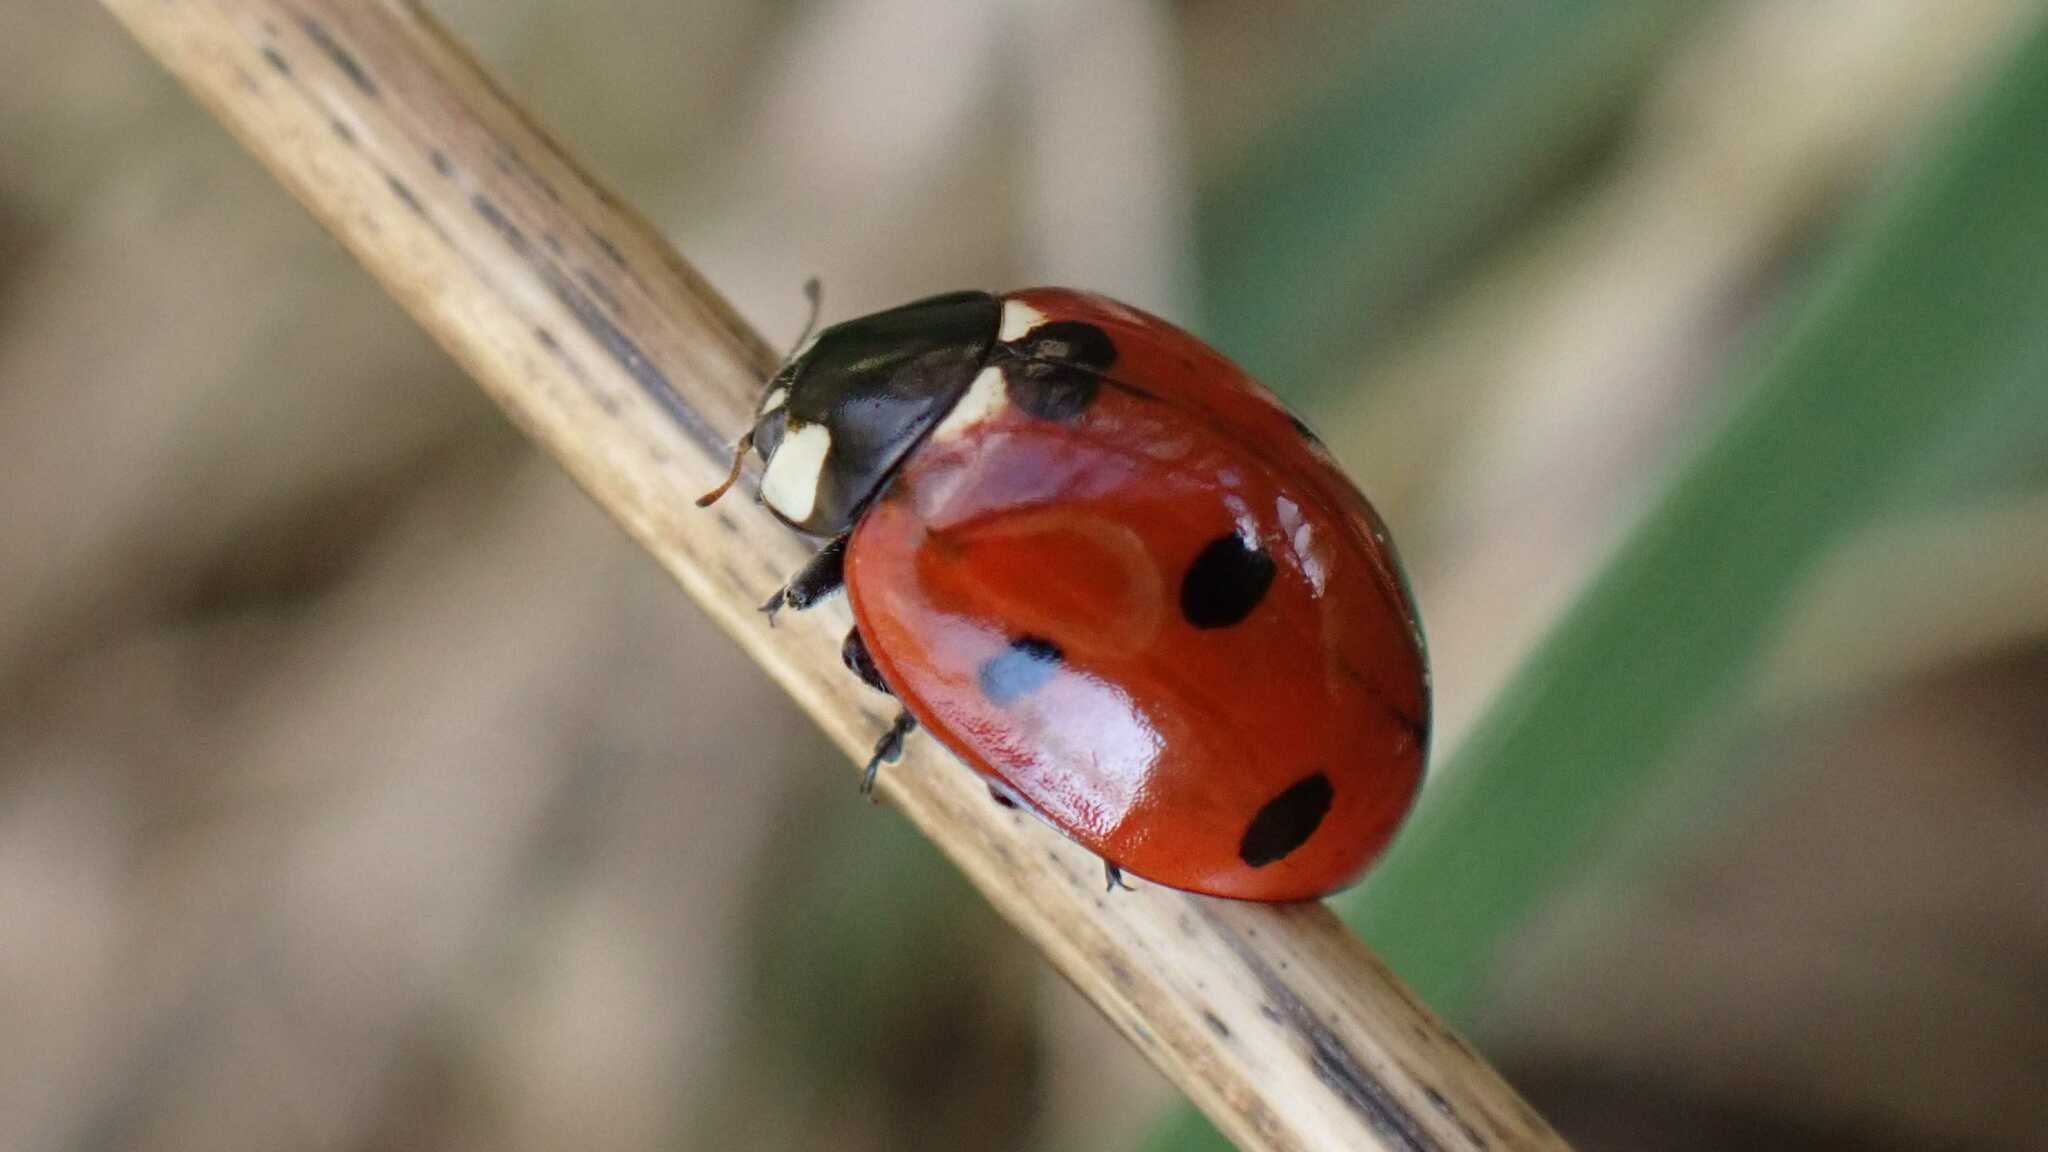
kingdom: Animalia
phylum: Arthropoda
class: Insecta
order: Coleoptera
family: Coccinellidae
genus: Coccinella
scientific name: Coccinella septempunctata
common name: Sevenspotted lady beetle
